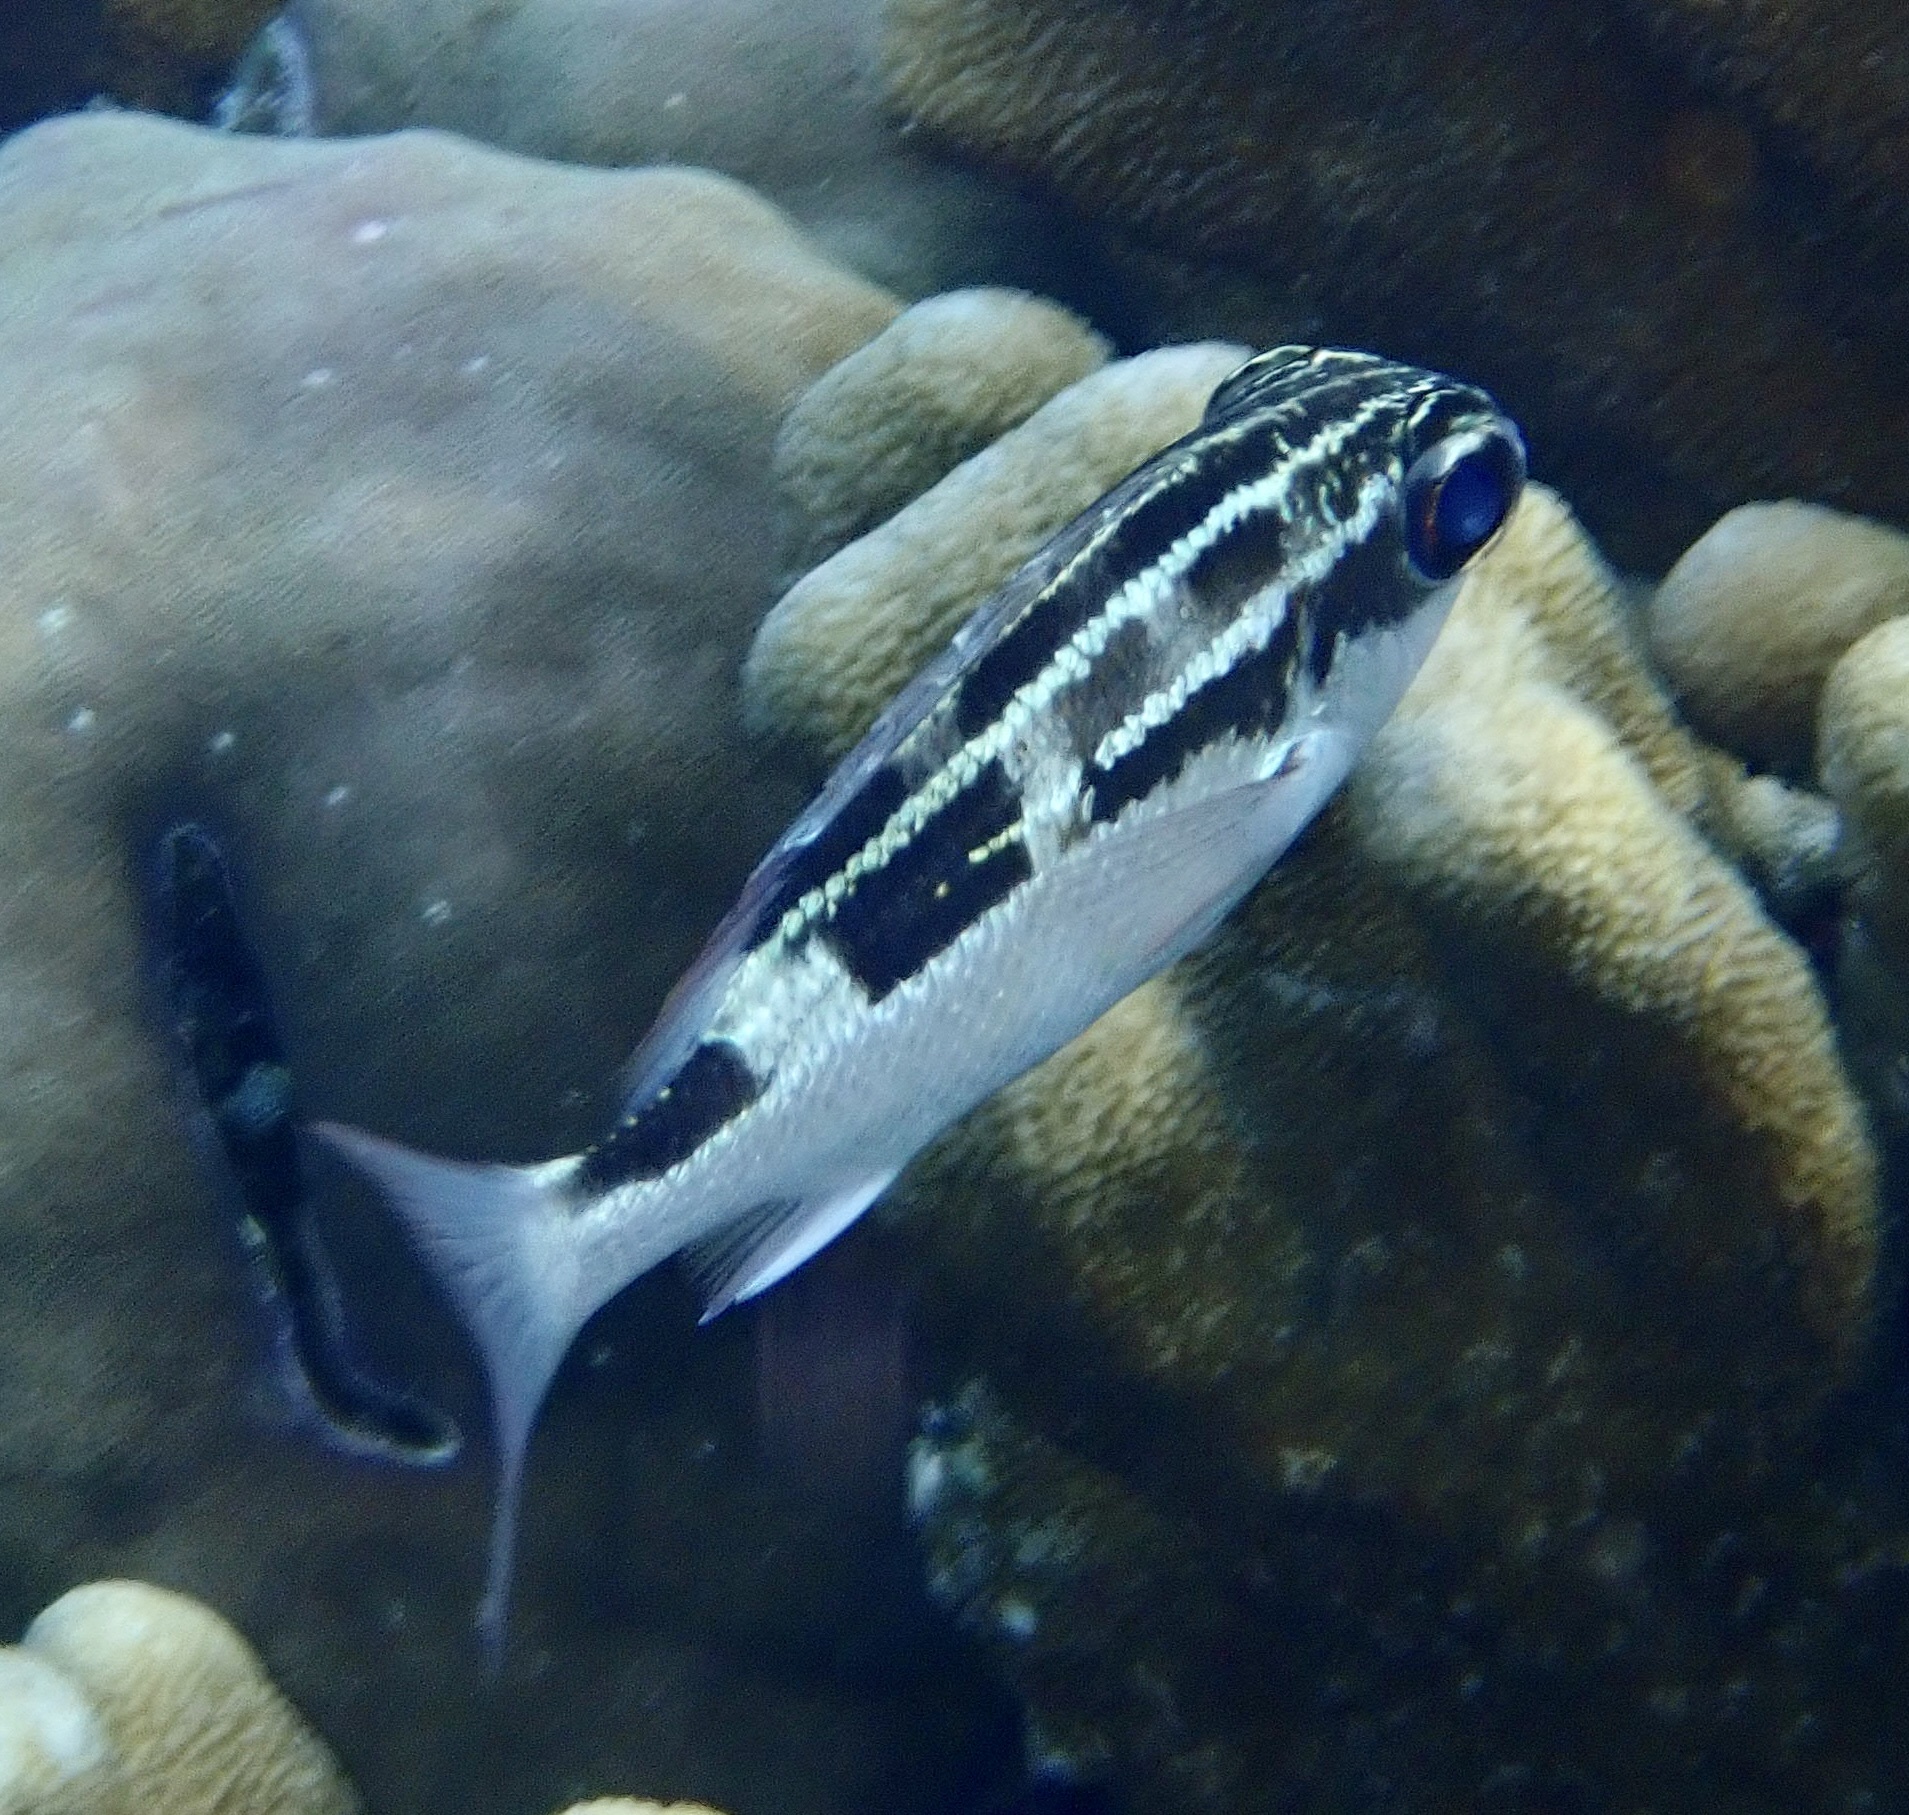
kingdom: Animalia
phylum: Chordata
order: Perciformes
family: Nemipteridae
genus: Scolopsis
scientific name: Scolopsis lineata
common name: Striped monocle bream
